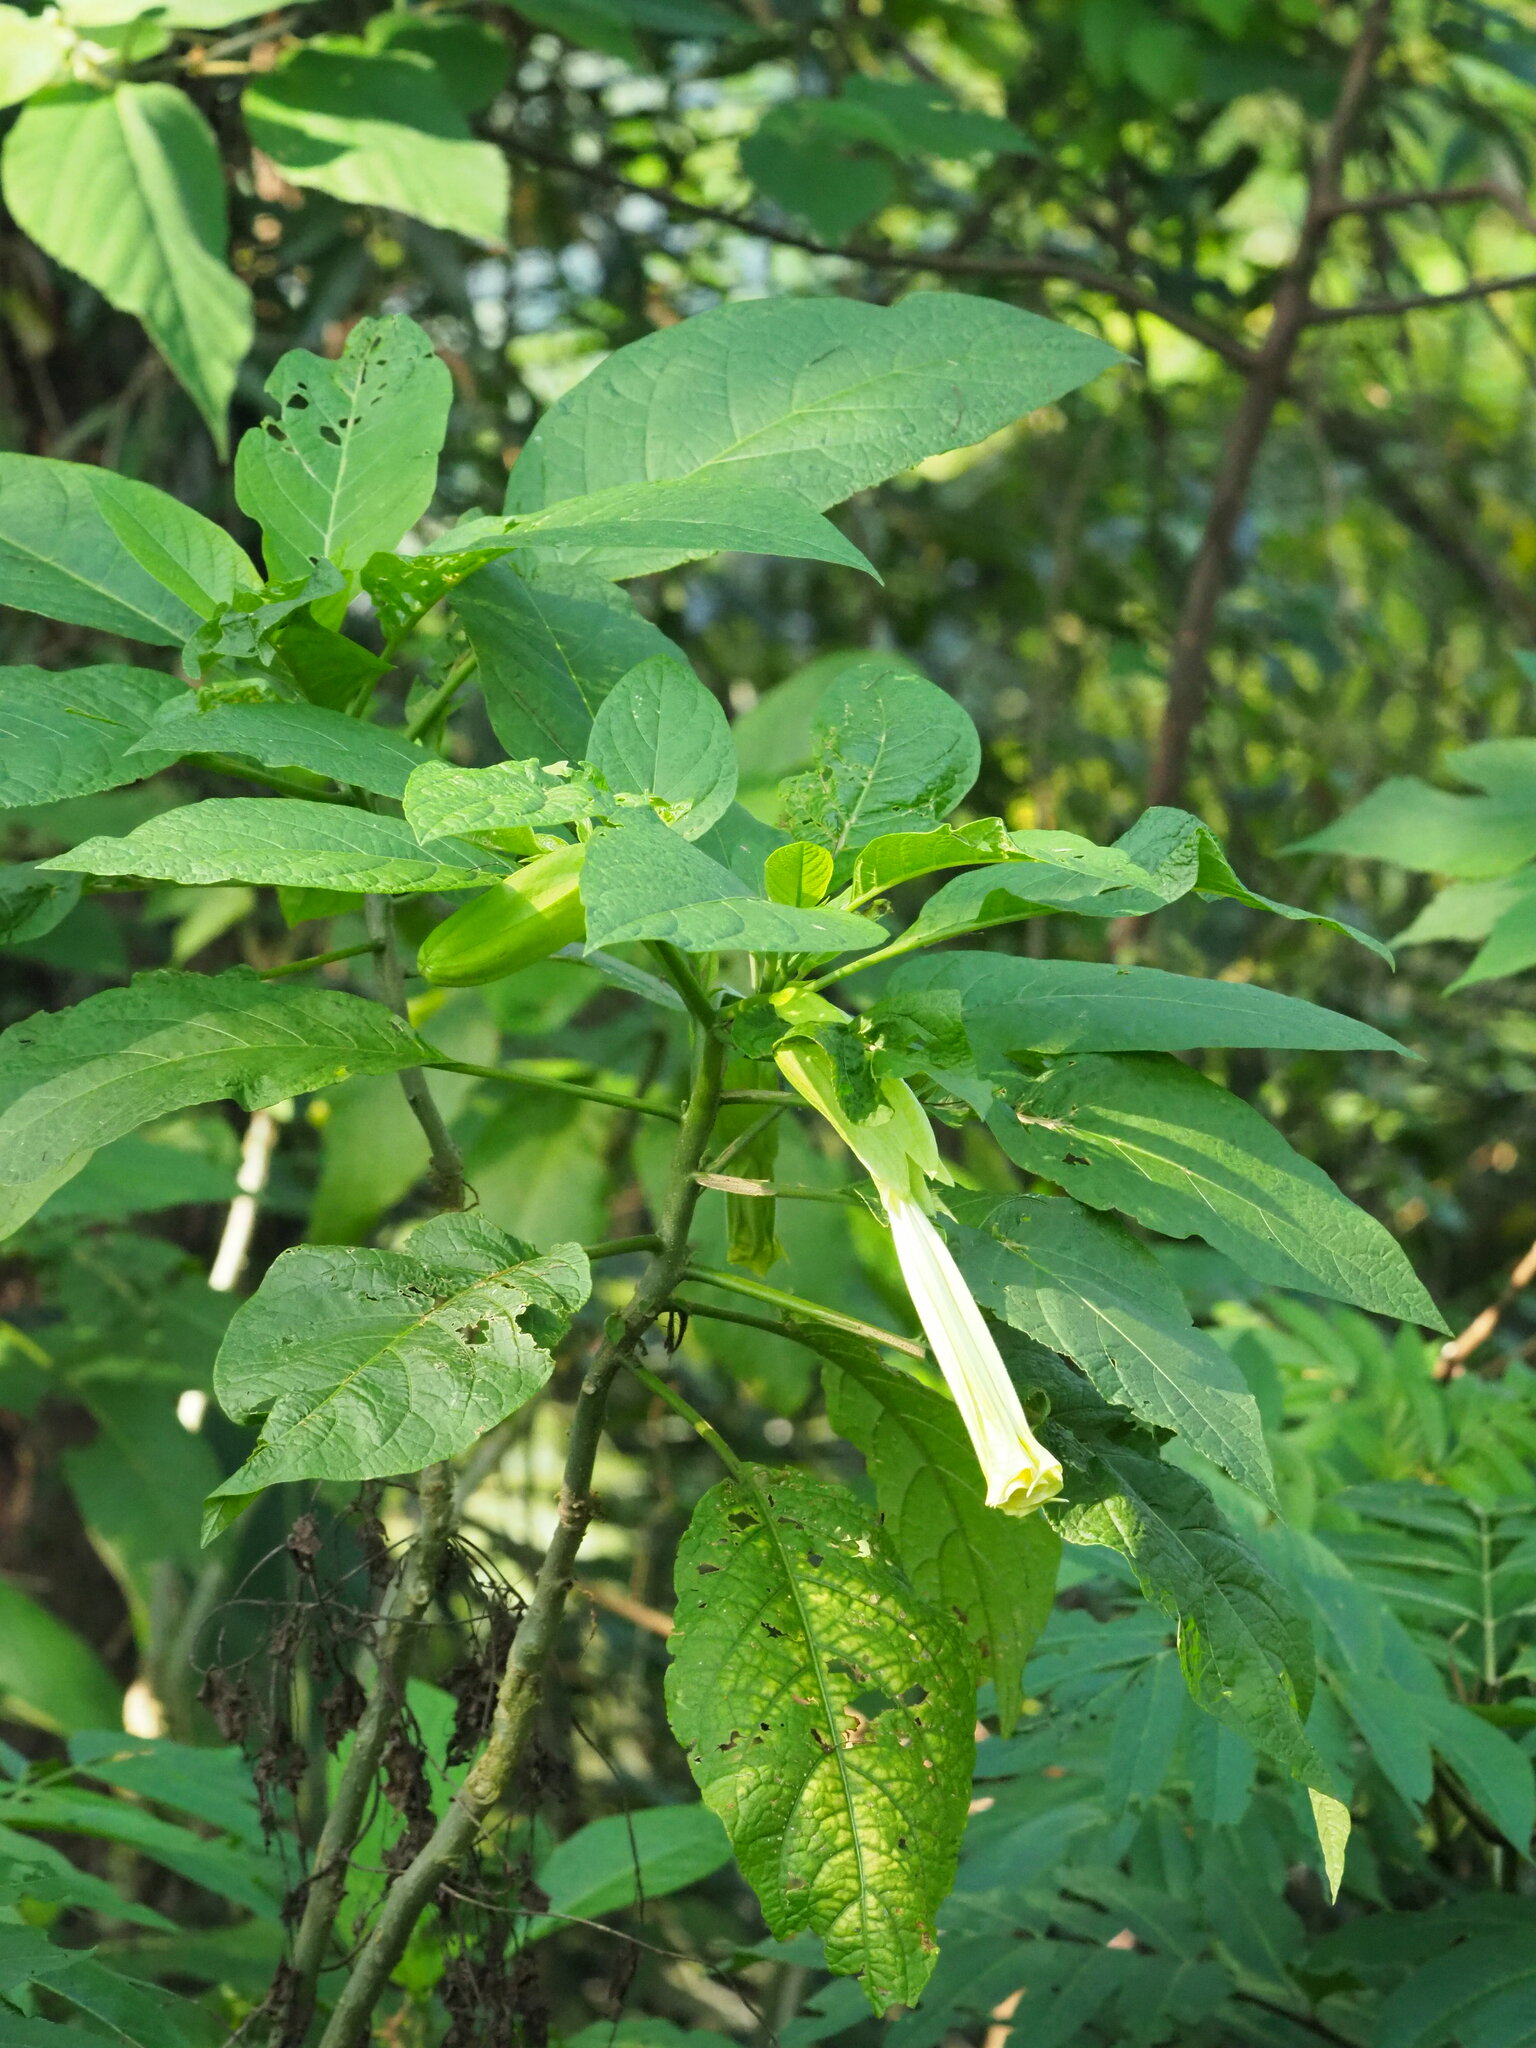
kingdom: Plantae
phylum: Tracheophyta
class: Magnoliopsida
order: Solanales
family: Solanaceae
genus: Brugmansia
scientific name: Brugmansia suaveolens
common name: Angel's tears
